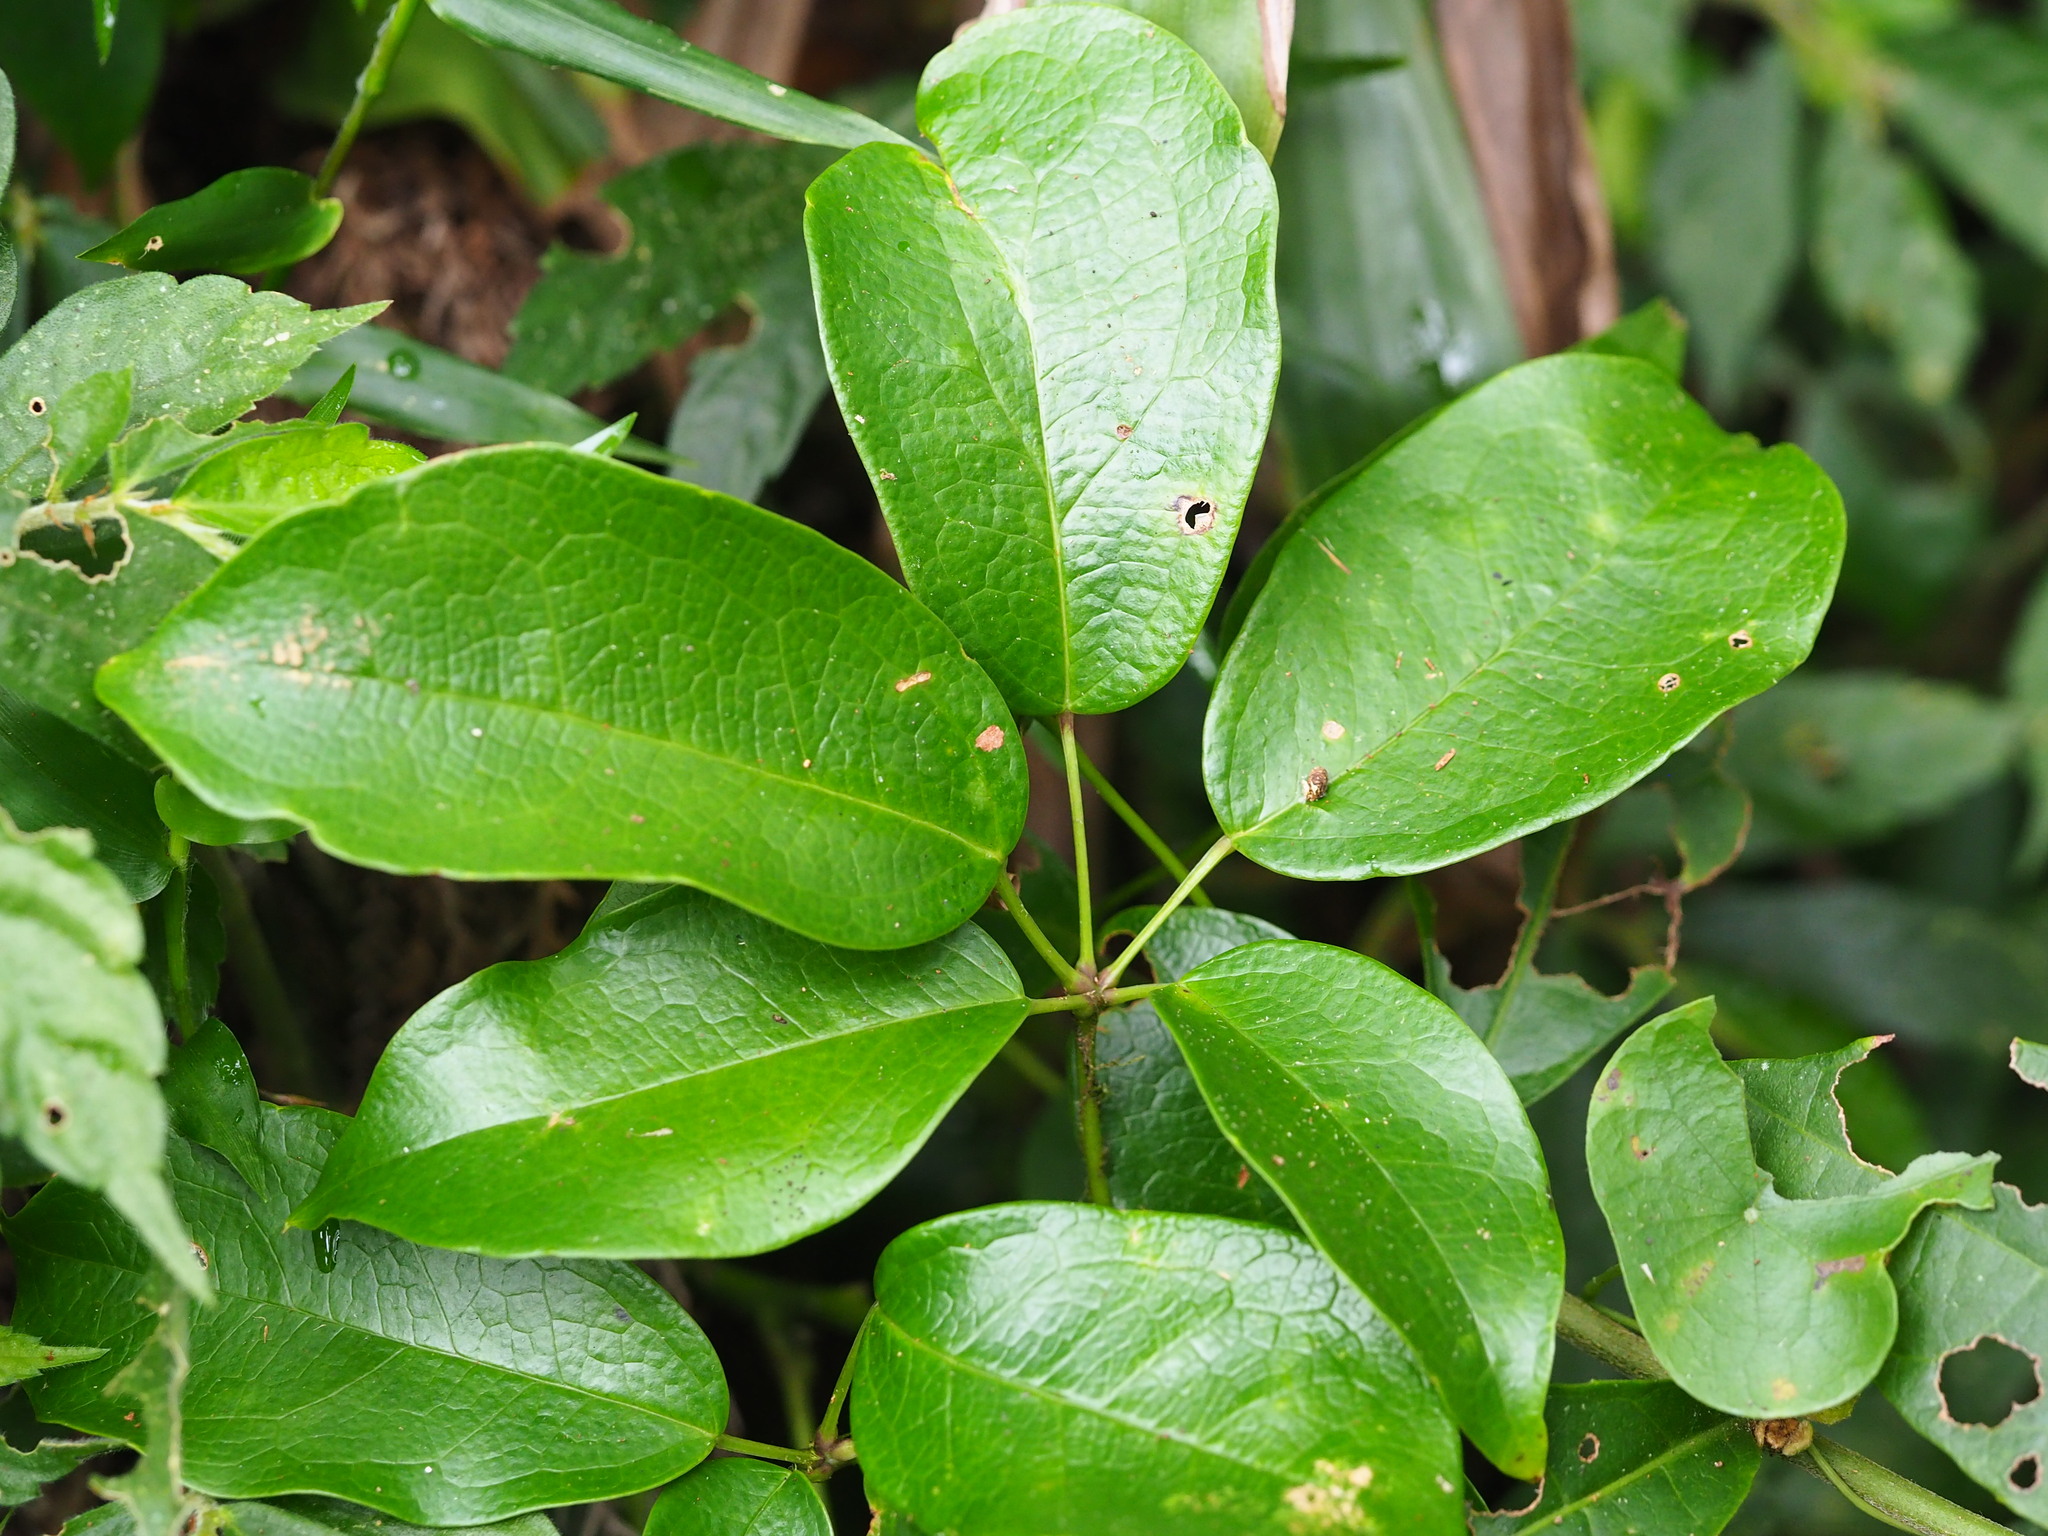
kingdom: Plantae
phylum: Tracheophyta
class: Magnoliopsida
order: Ranunculales
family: Lardizabalaceae
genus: Stauntonia
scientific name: Stauntonia obovatifoliola
